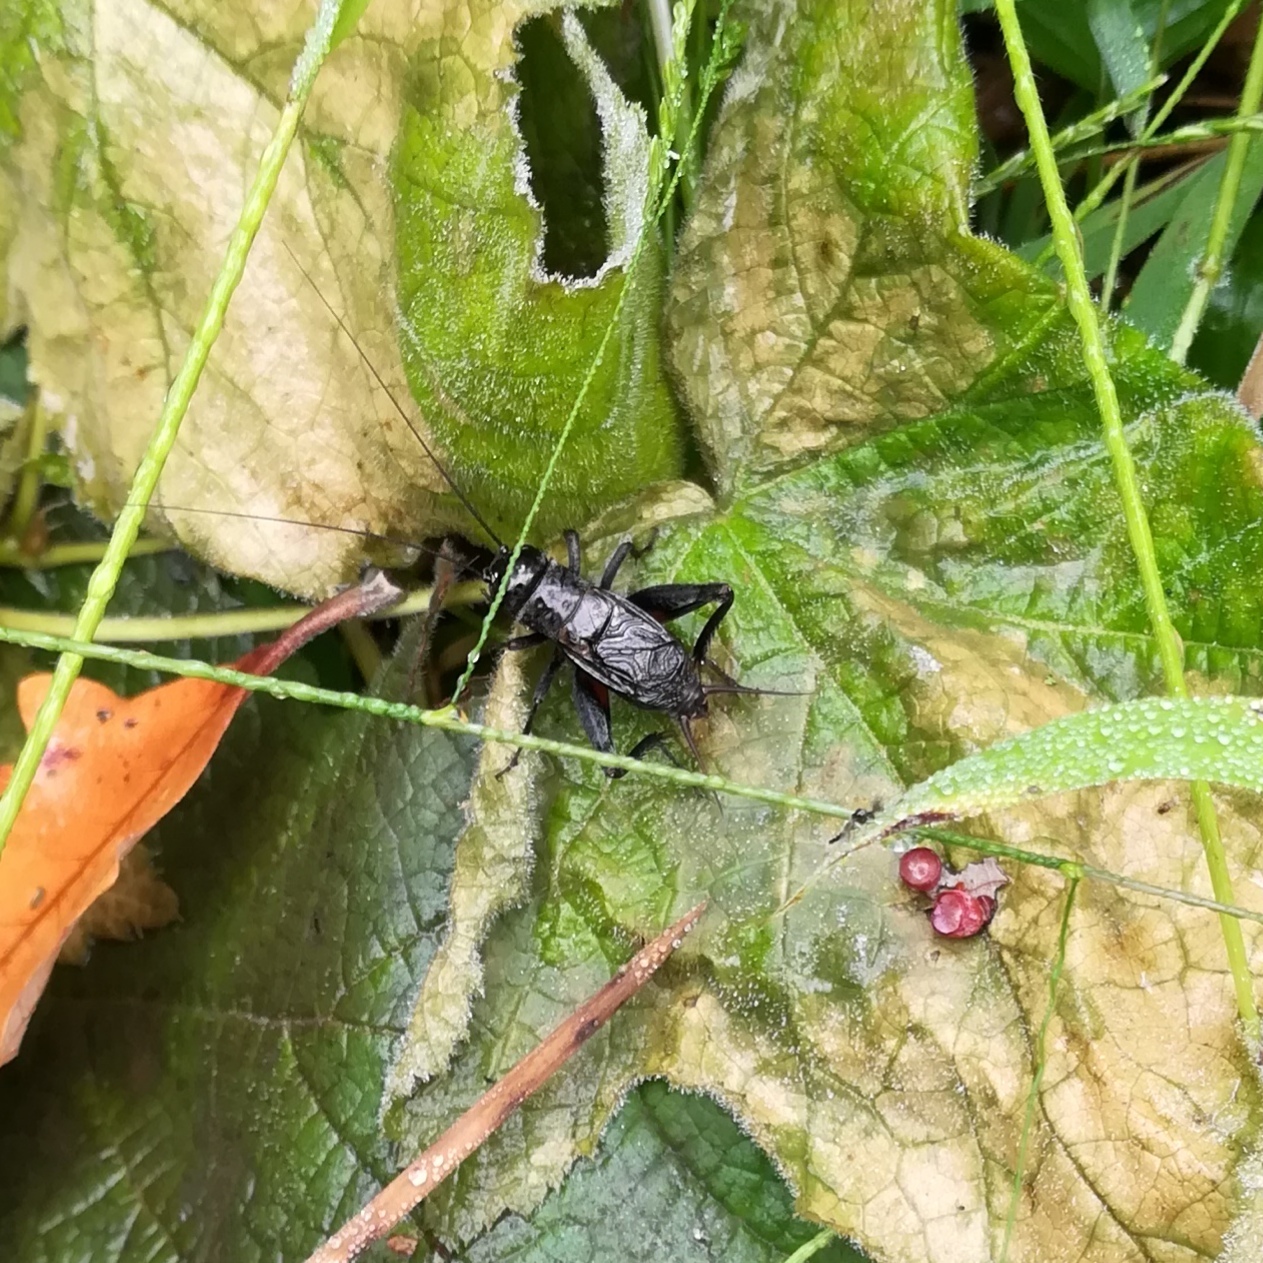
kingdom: Animalia
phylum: Arthropoda
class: Insecta
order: Orthoptera
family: Gryllidae
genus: Gryllus
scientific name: Gryllus pennsylvanicus
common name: Fall field cricket
